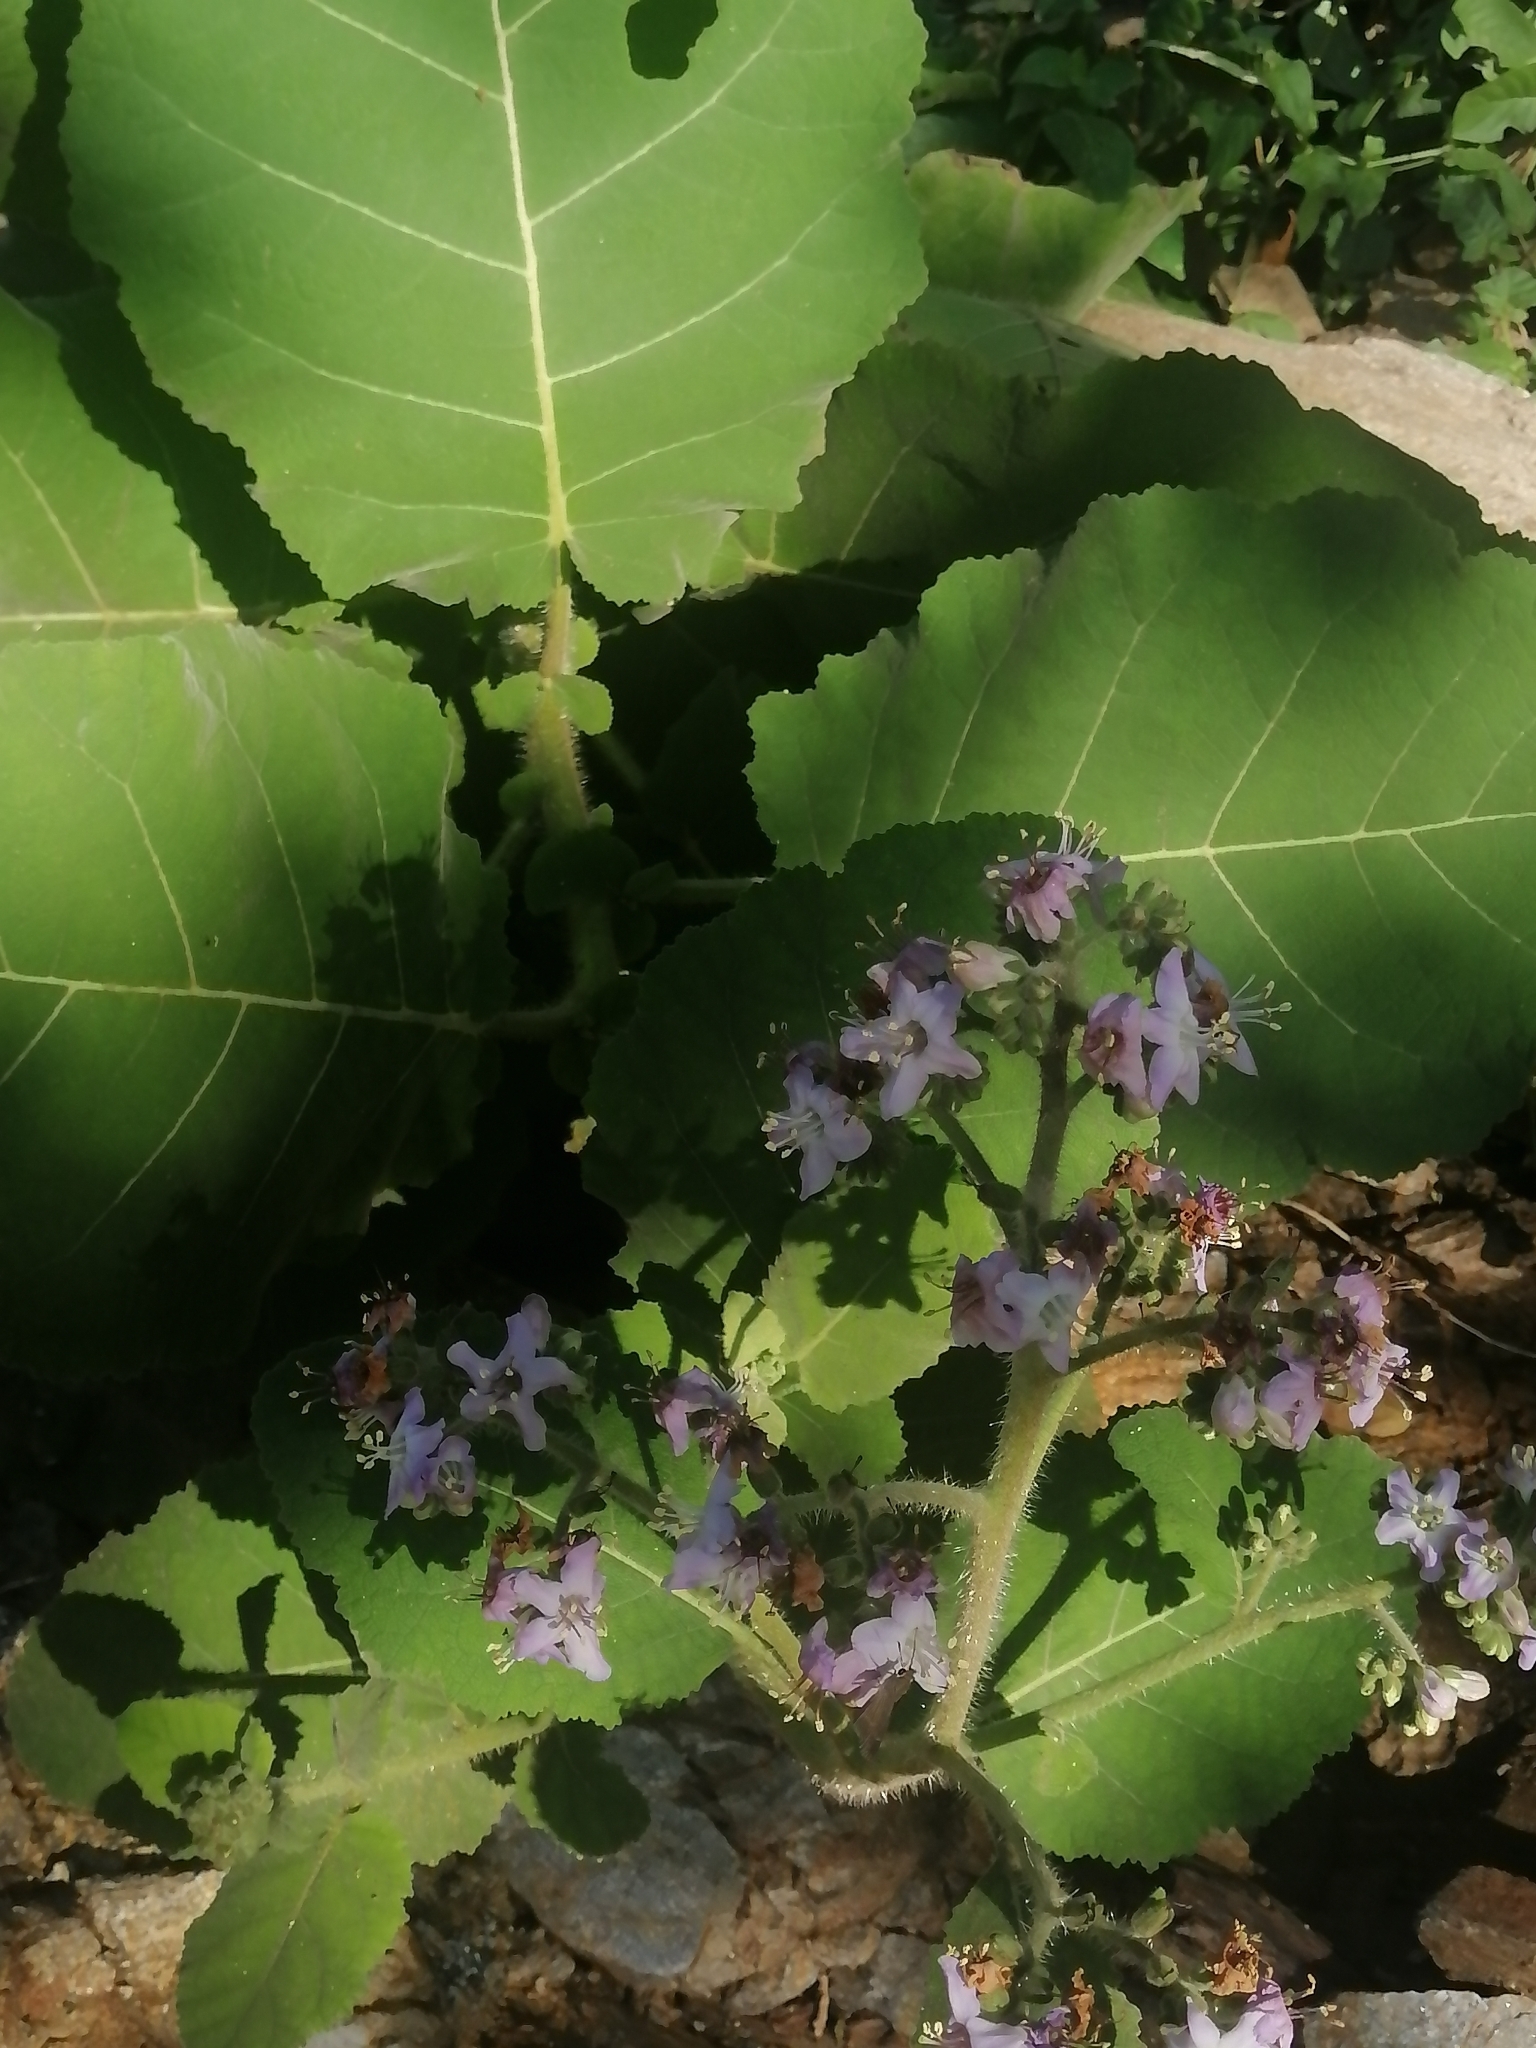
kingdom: Plantae
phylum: Tracheophyta
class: Magnoliopsida
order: Boraginales
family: Namaceae
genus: Wigandia
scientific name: Wigandia urens
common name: Caracus wigandia
